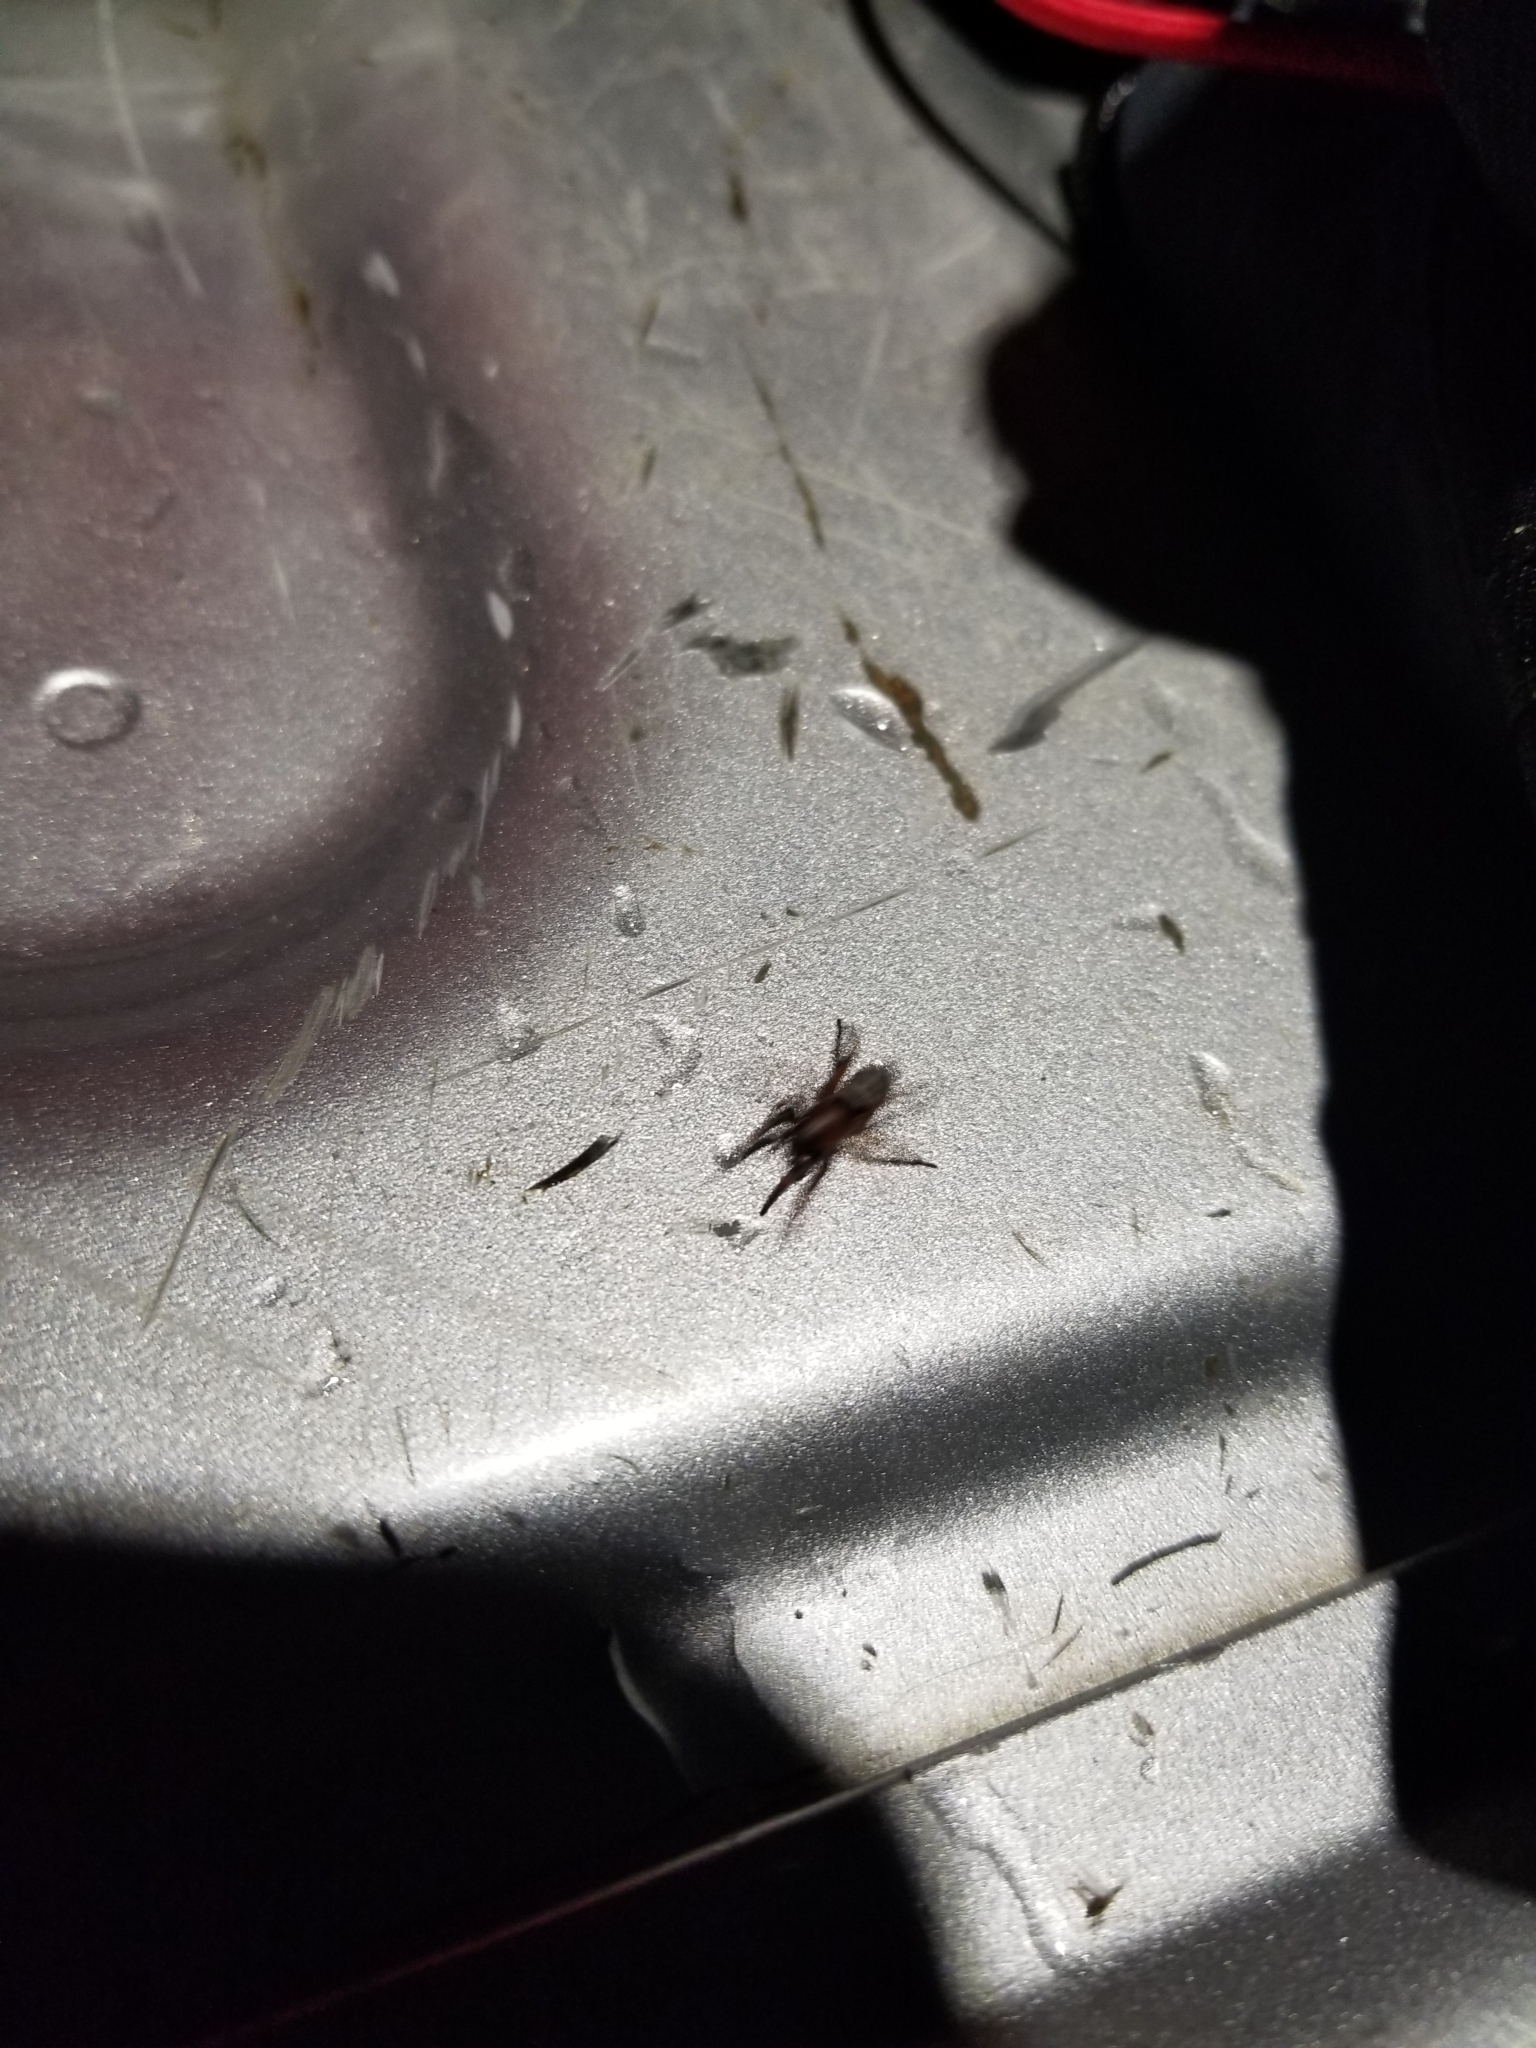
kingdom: Animalia
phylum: Arthropoda
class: Arachnida
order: Araneae
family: Gnaphosidae
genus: Sergiolus
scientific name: Sergiolus capulatus
